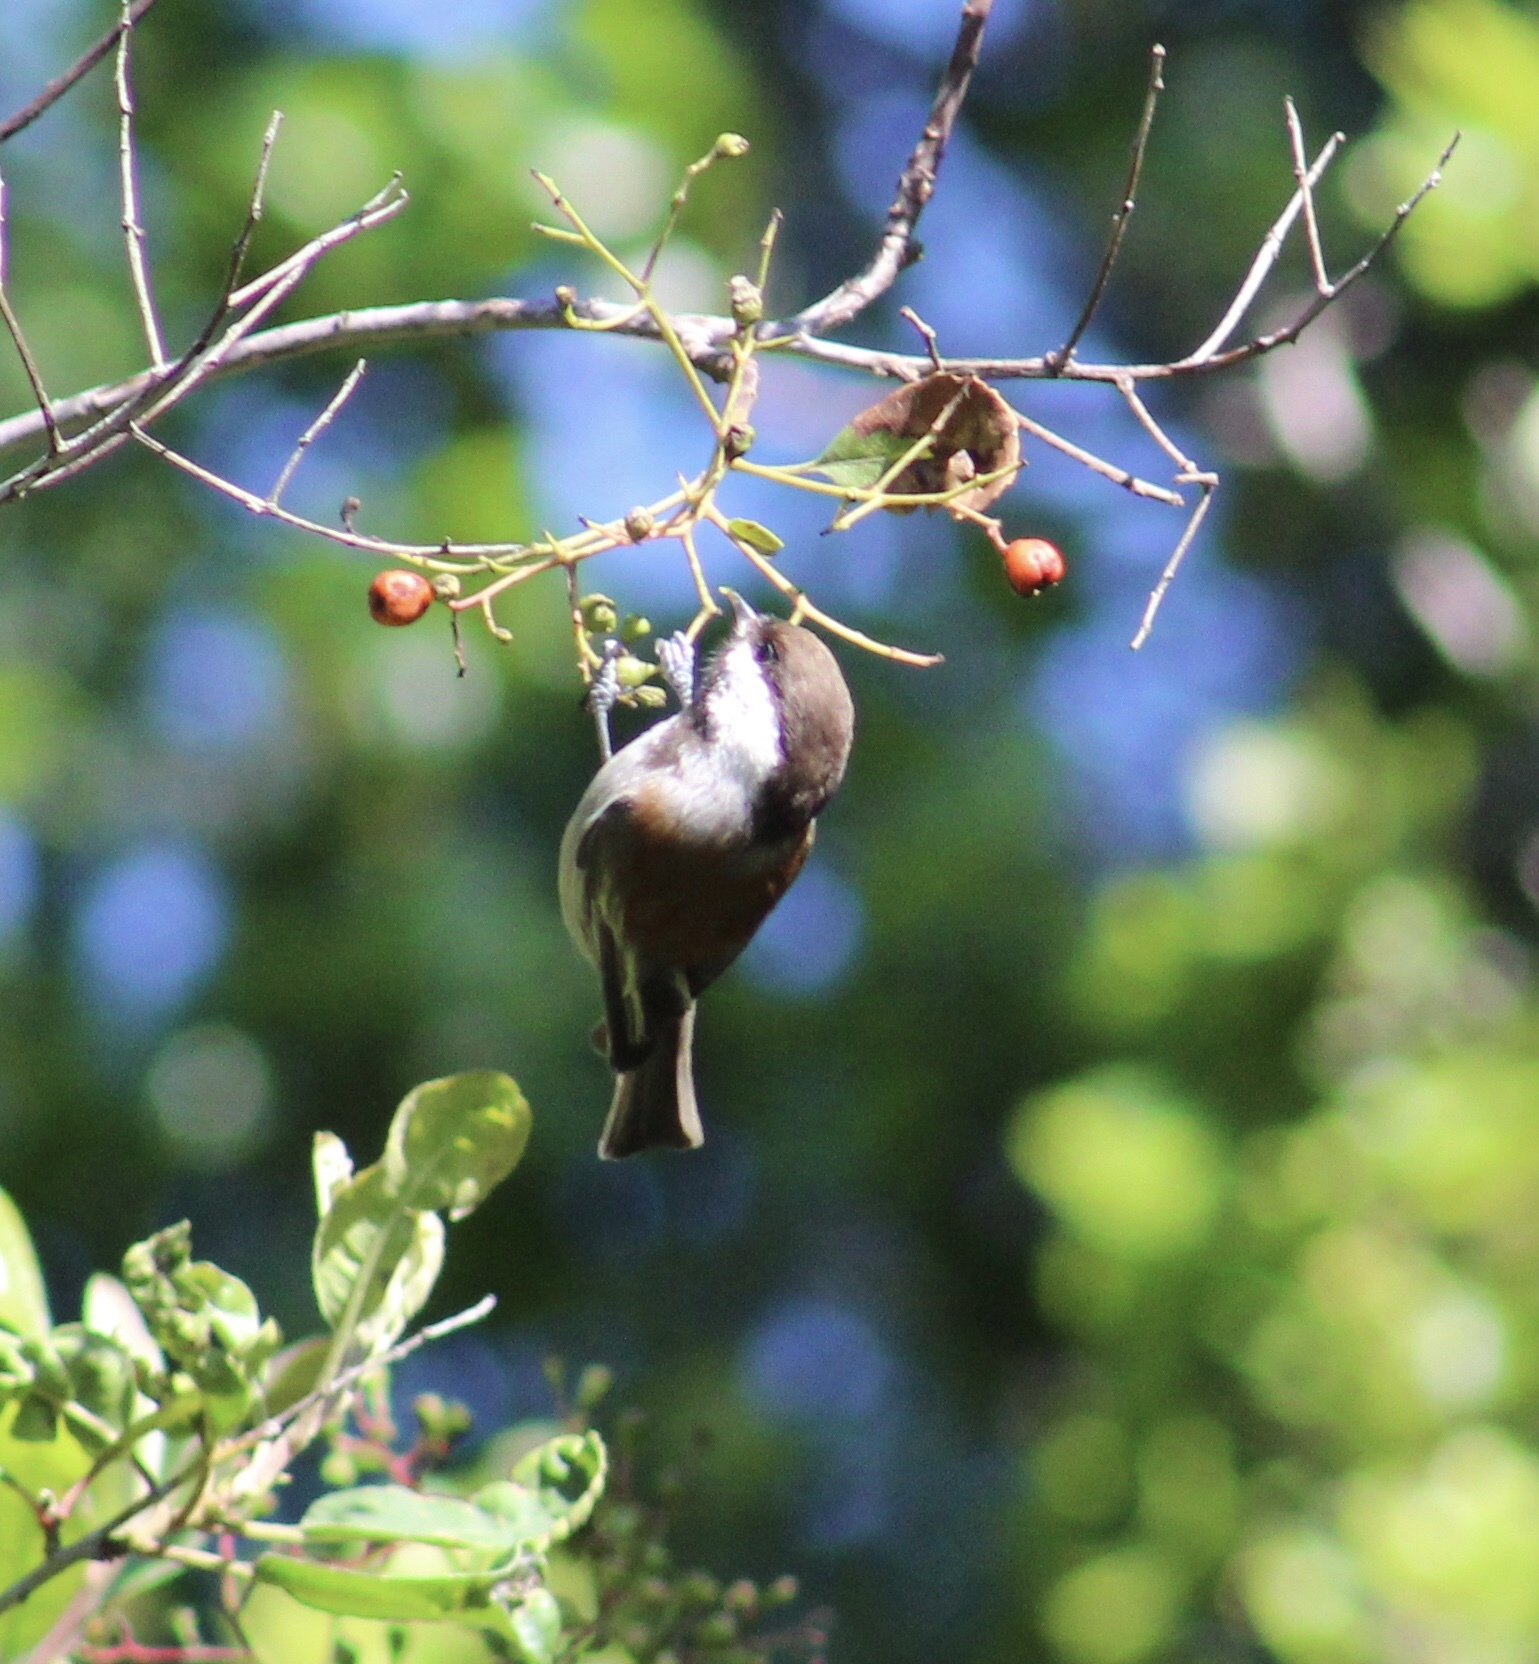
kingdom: Animalia
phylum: Chordata
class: Aves
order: Passeriformes
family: Paridae
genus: Poecile
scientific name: Poecile rufescens
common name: Chestnut-backed chickadee
